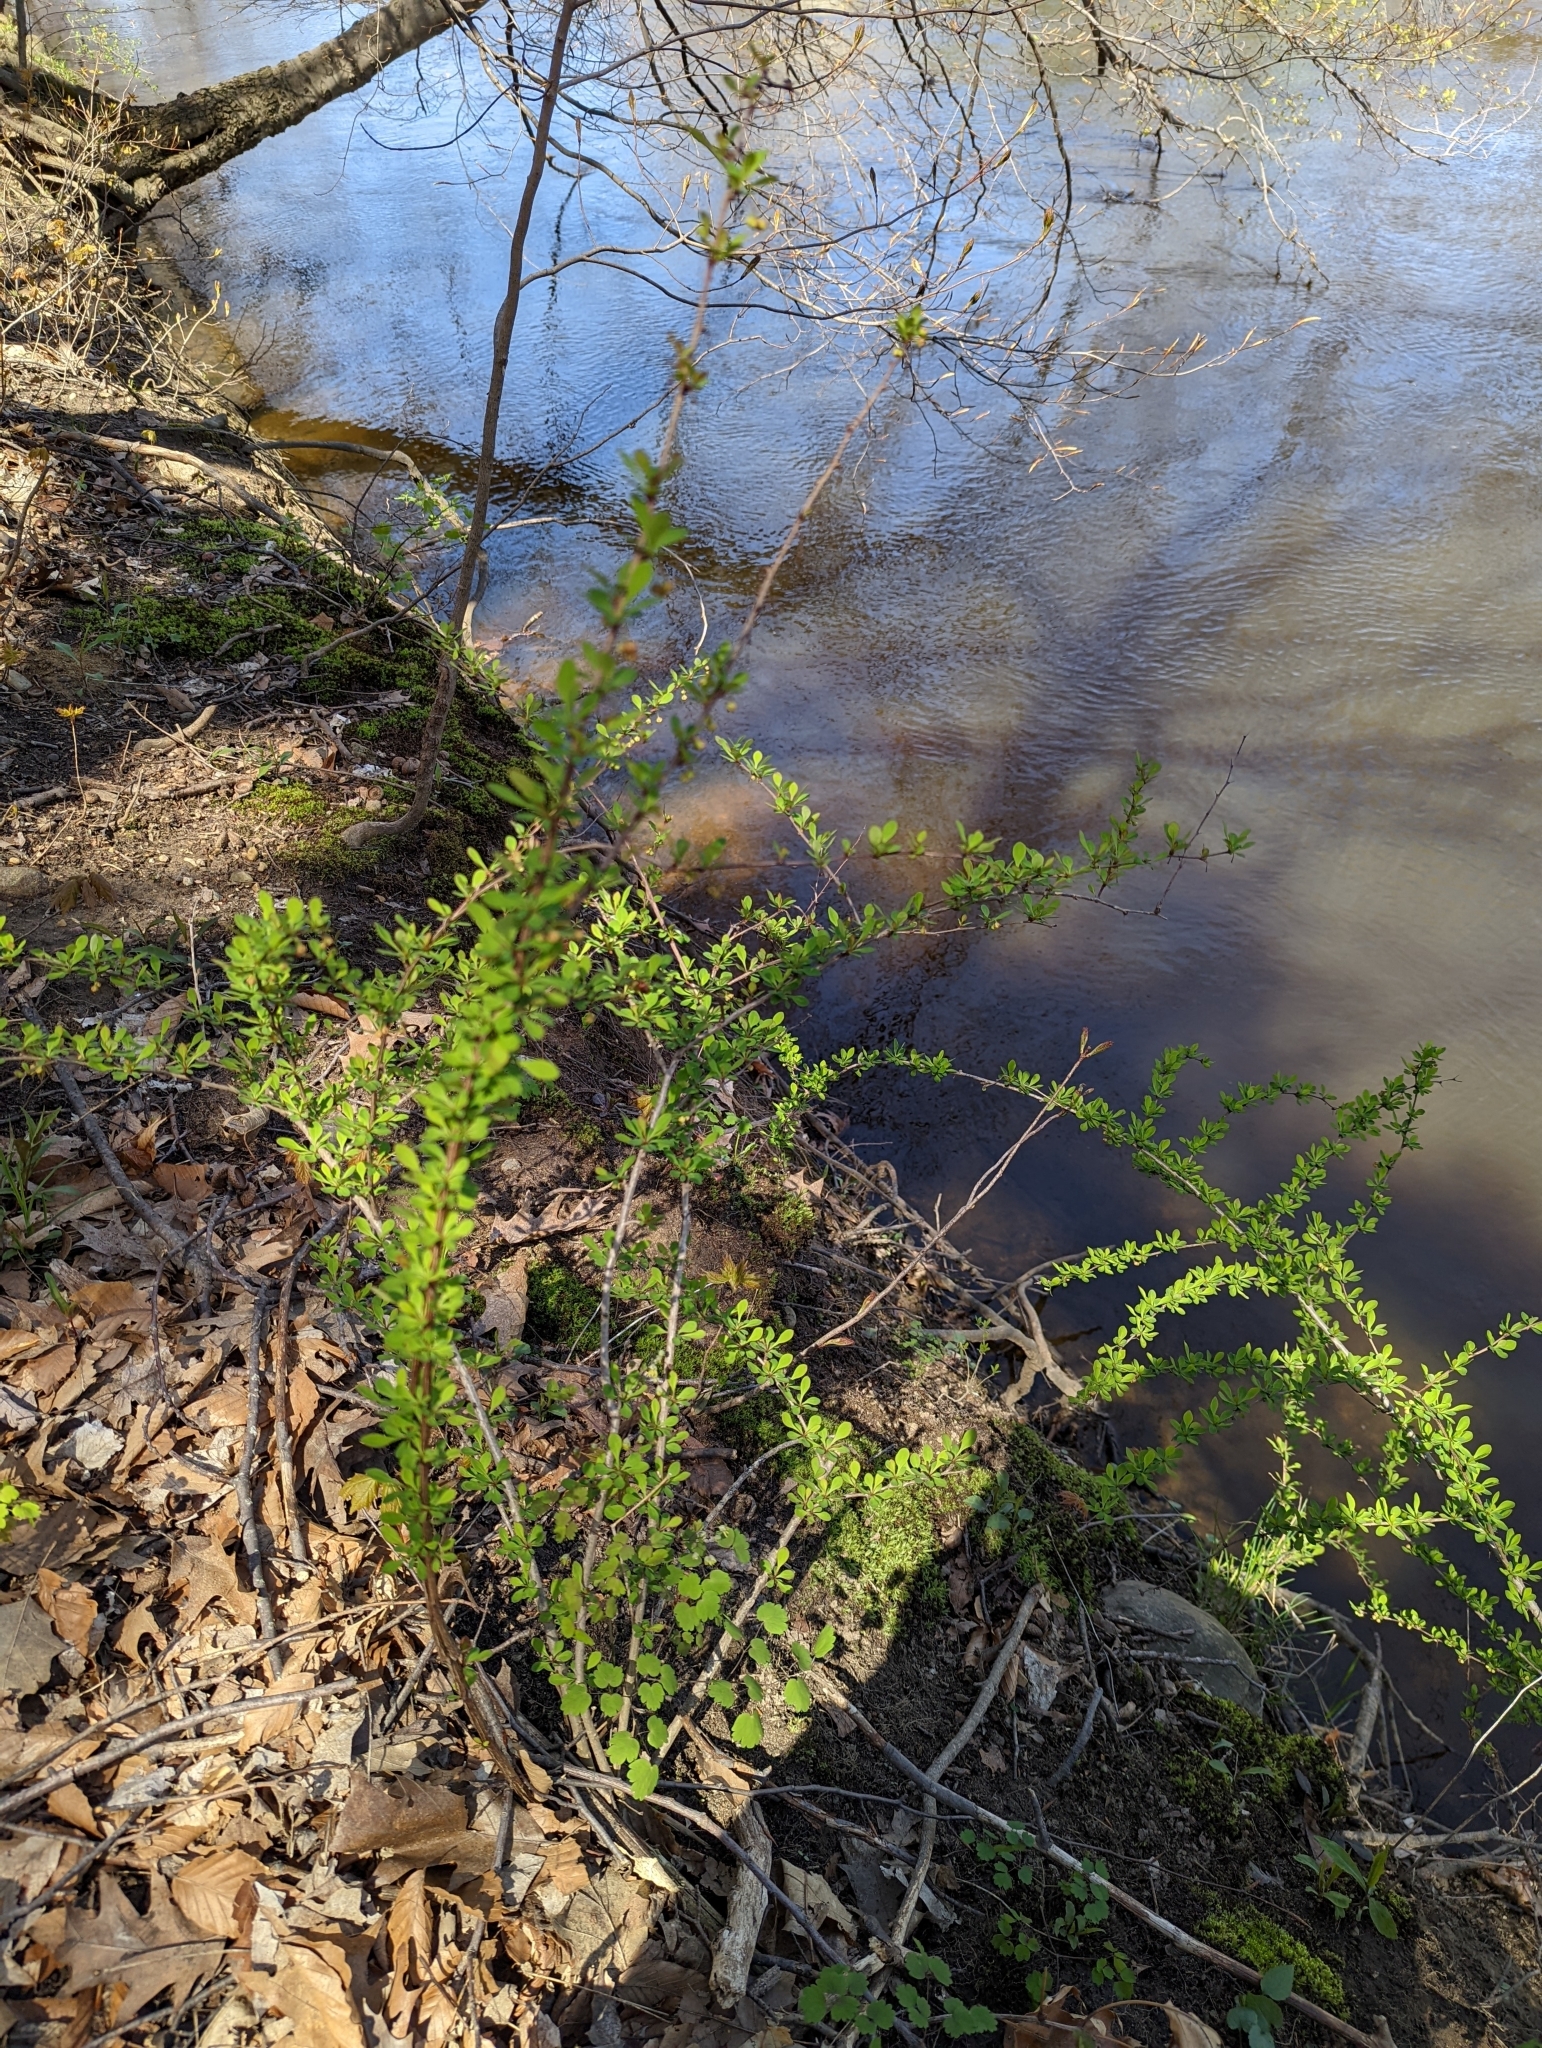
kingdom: Plantae
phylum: Tracheophyta
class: Magnoliopsida
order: Ranunculales
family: Berberidaceae
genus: Berberis
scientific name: Berberis thunbergii
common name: Japanese barberry
